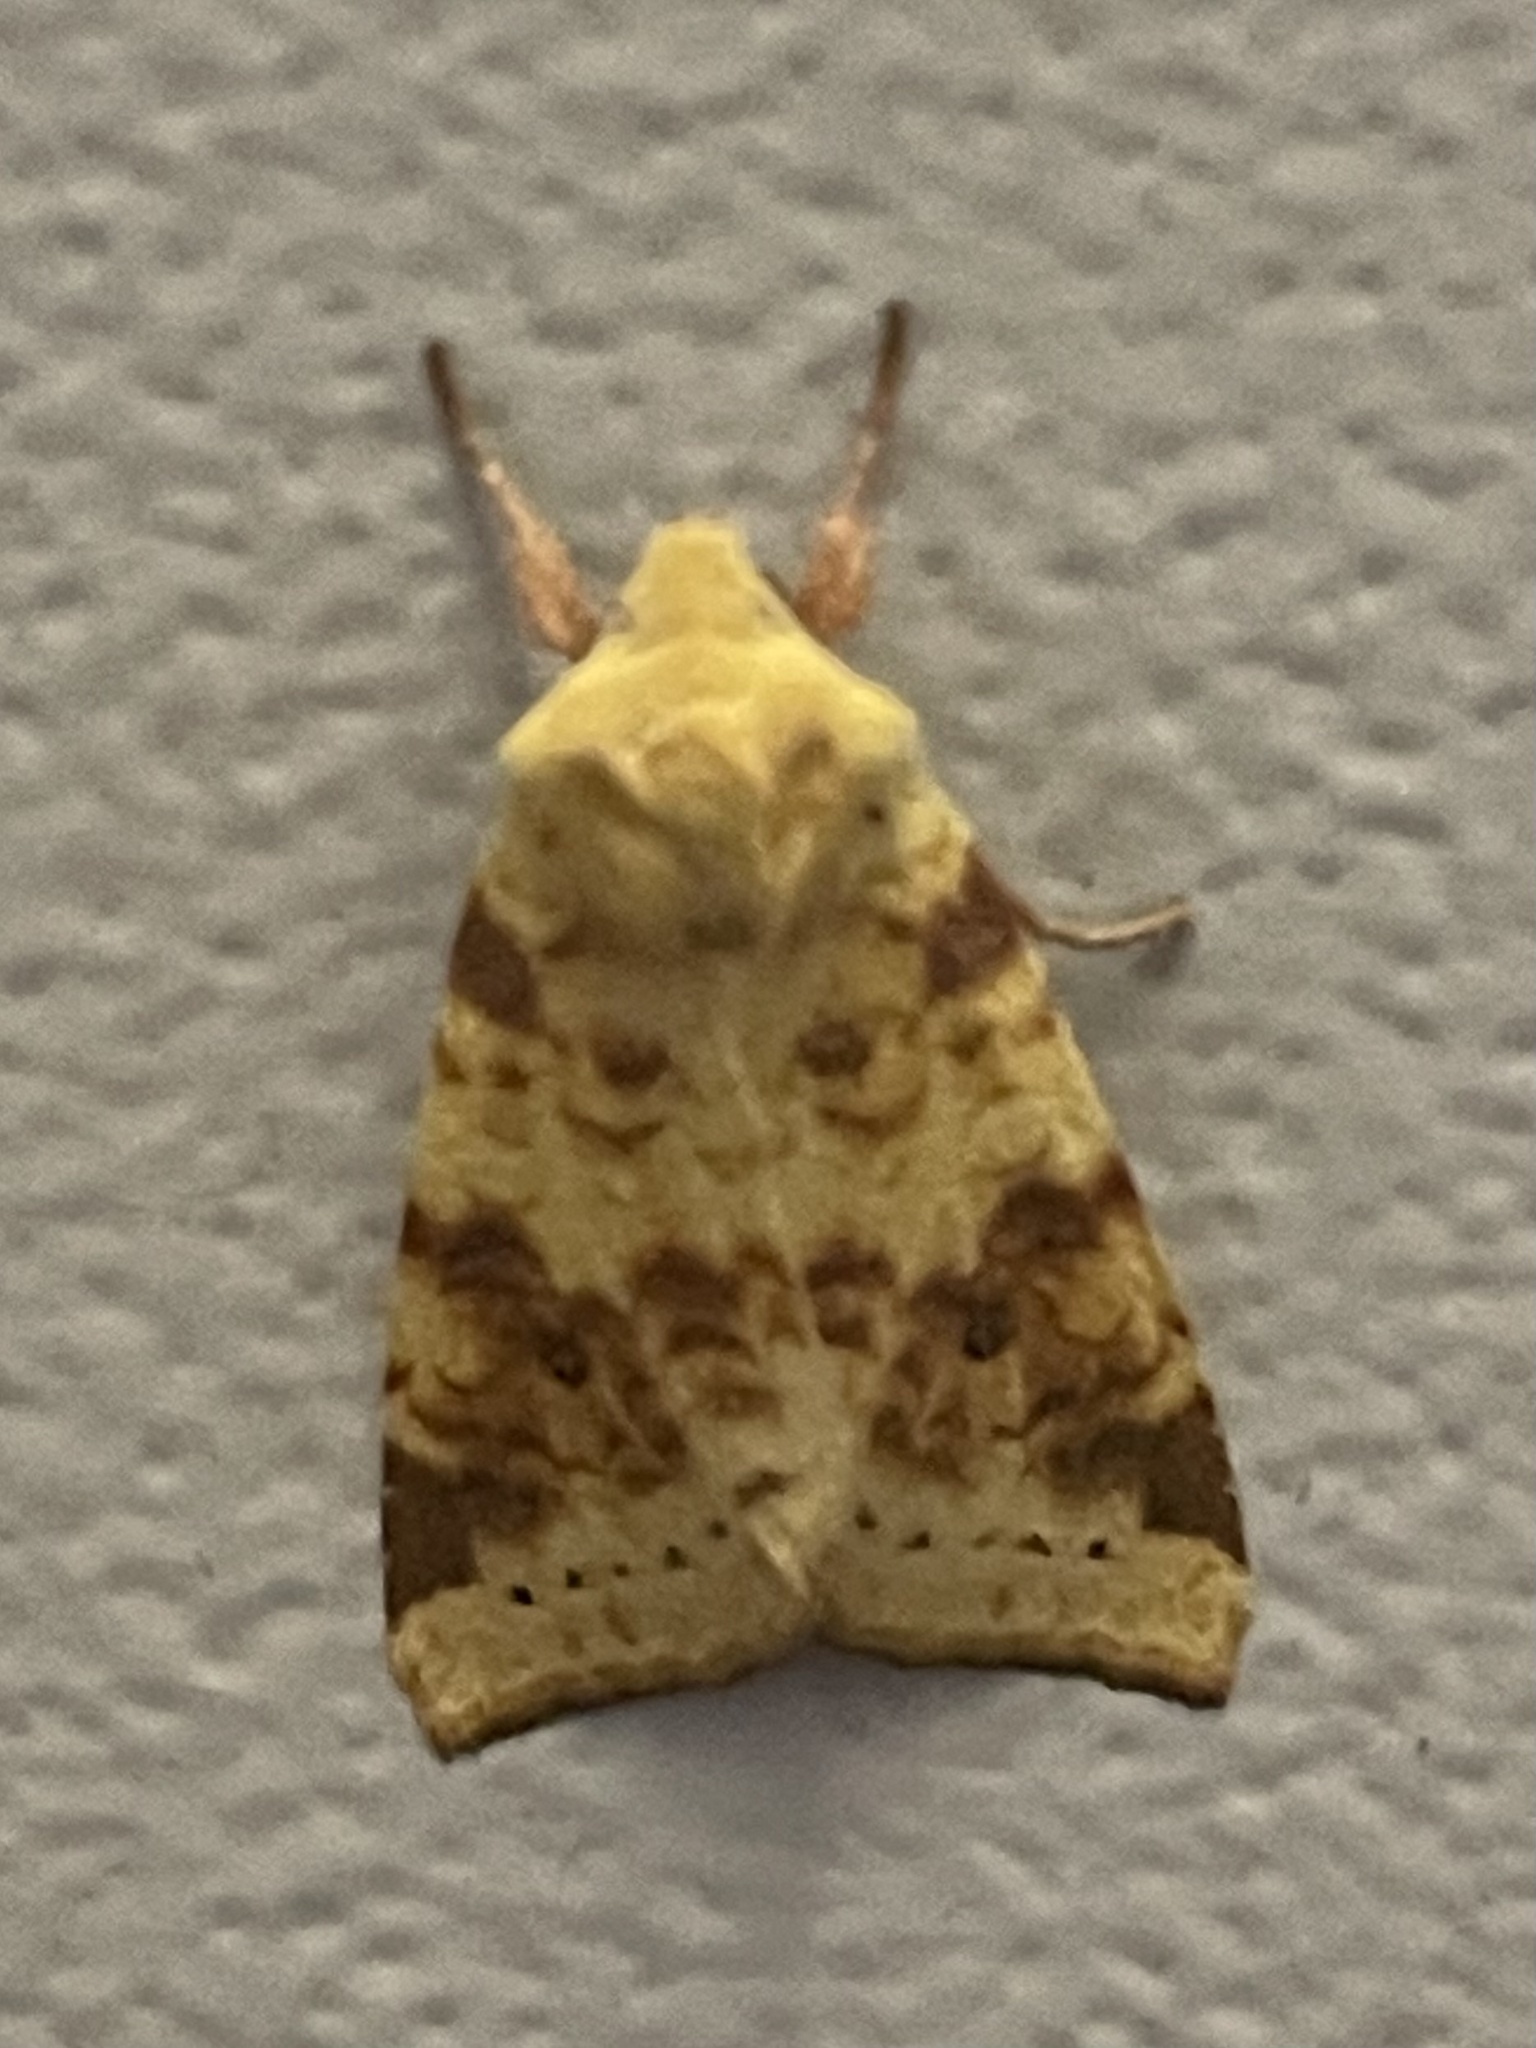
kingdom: Animalia
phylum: Arthropoda
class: Insecta
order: Lepidoptera
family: Noctuidae
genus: Xanthia
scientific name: Xanthia icteritia
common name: The sallow
